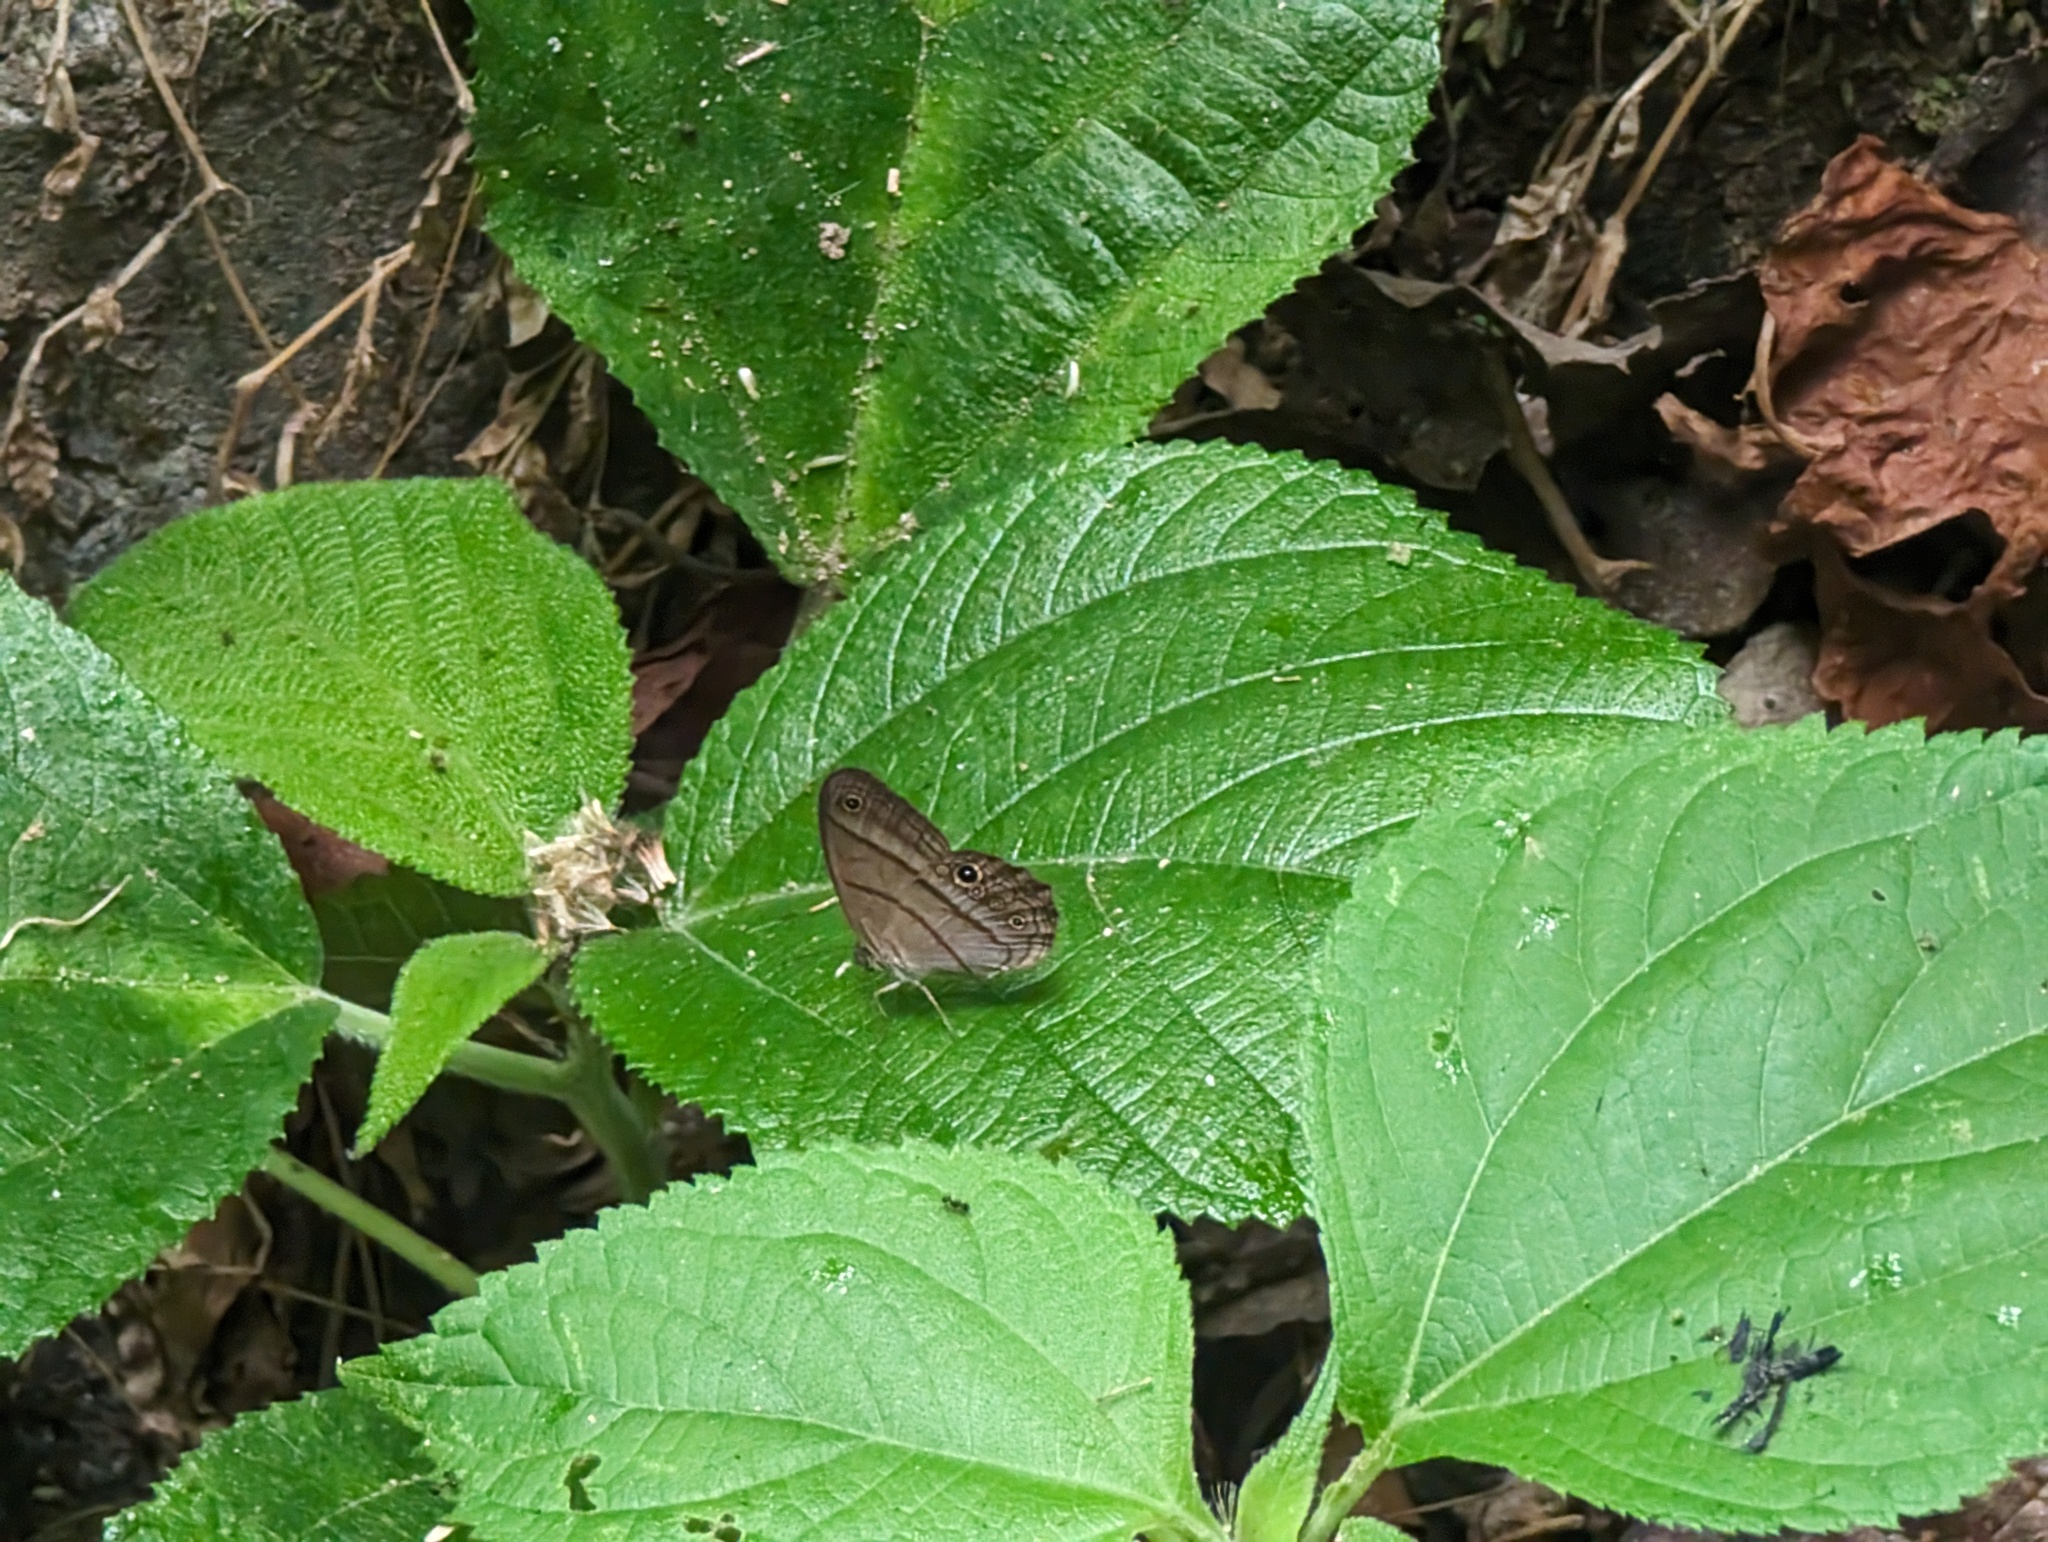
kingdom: Animalia
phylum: Arthropoda
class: Insecta
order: Lepidoptera
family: Nymphalidae
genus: Amiga
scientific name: Amiga arnaca
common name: Blue-topped satyr
